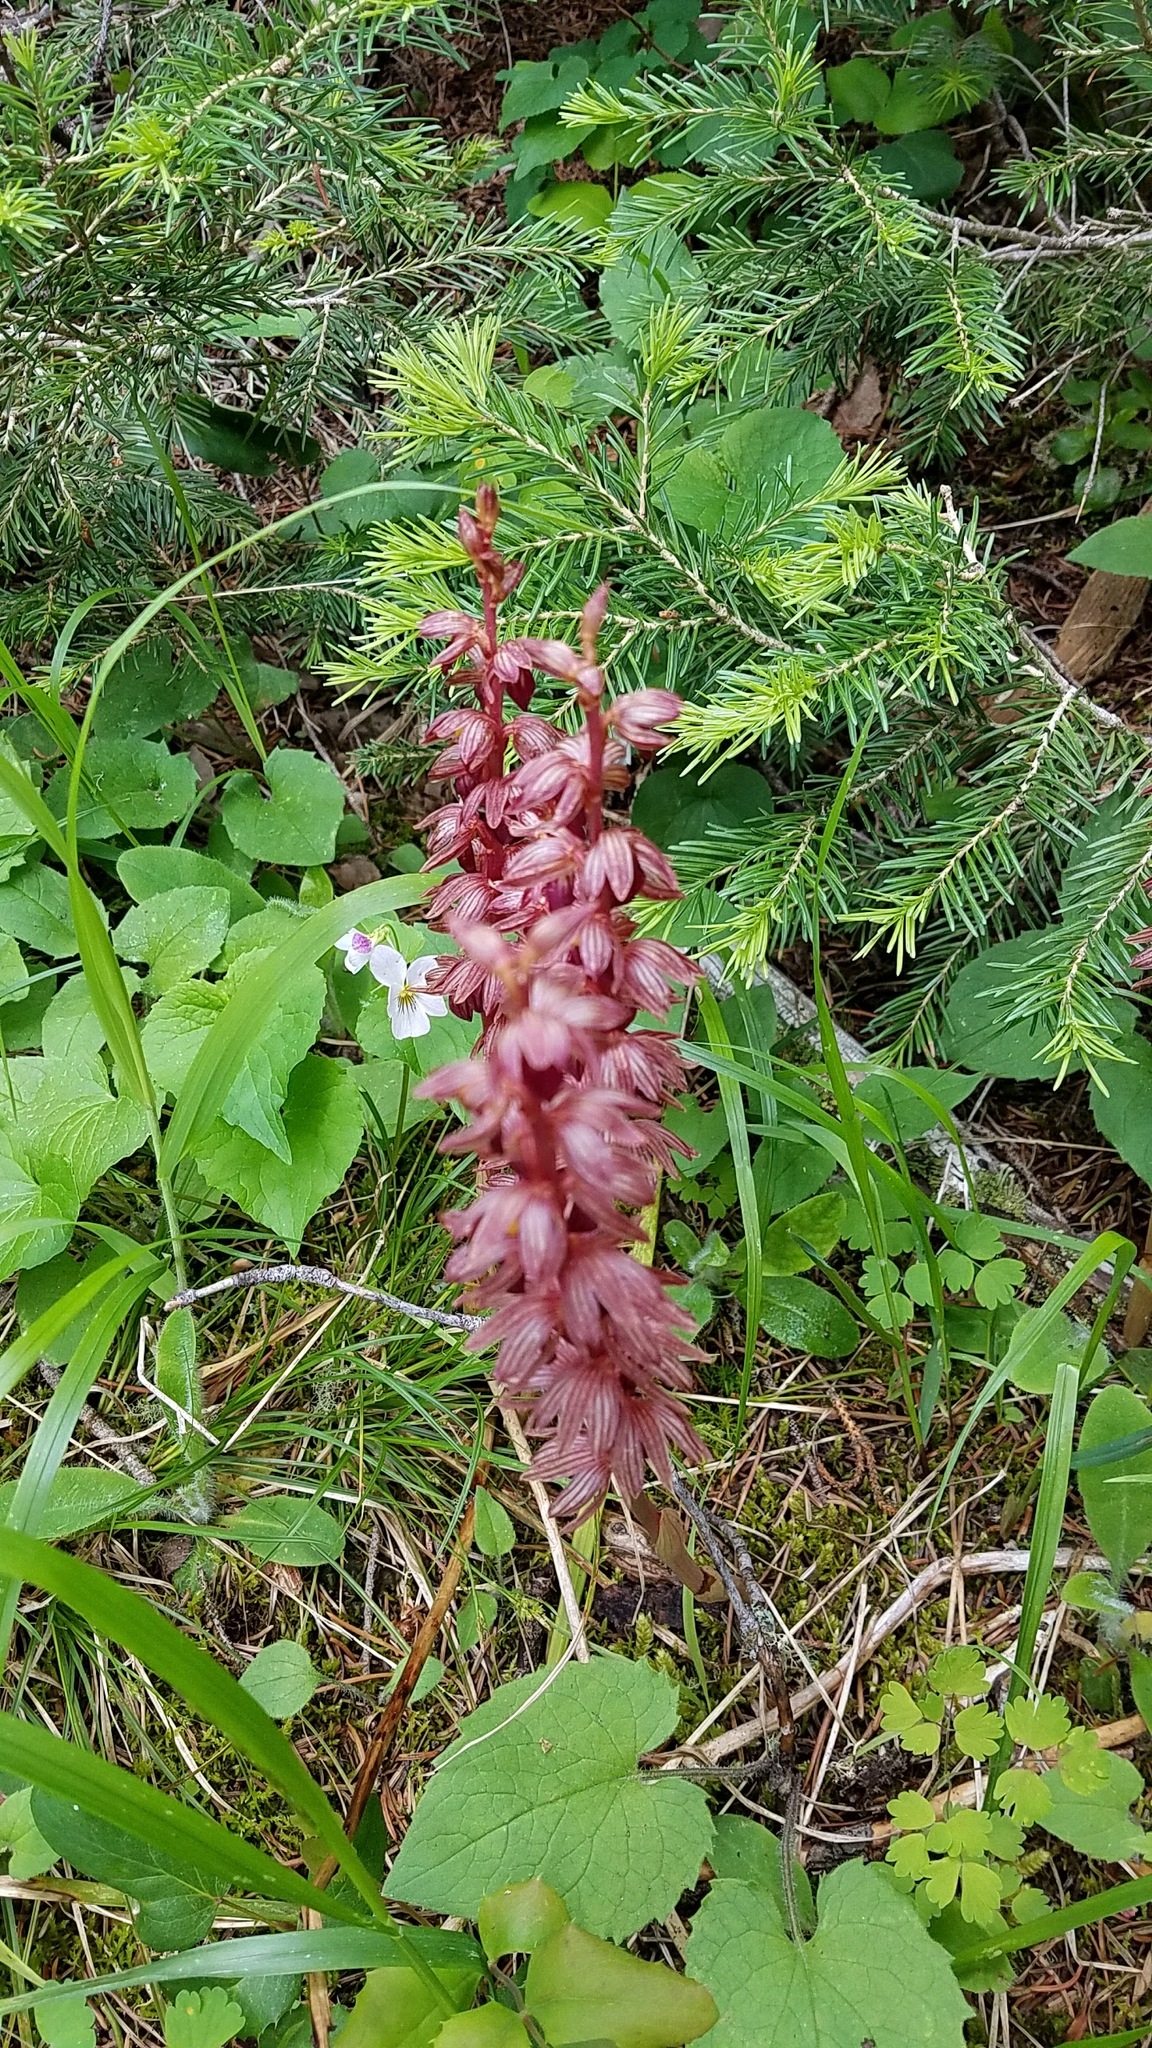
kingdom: Plantae
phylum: Tracheophyta
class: Liliopsida
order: Asparagales
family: Orchidaceae
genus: Corallorhiza
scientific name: Corallorhiza striata
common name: Hooded coralroot
